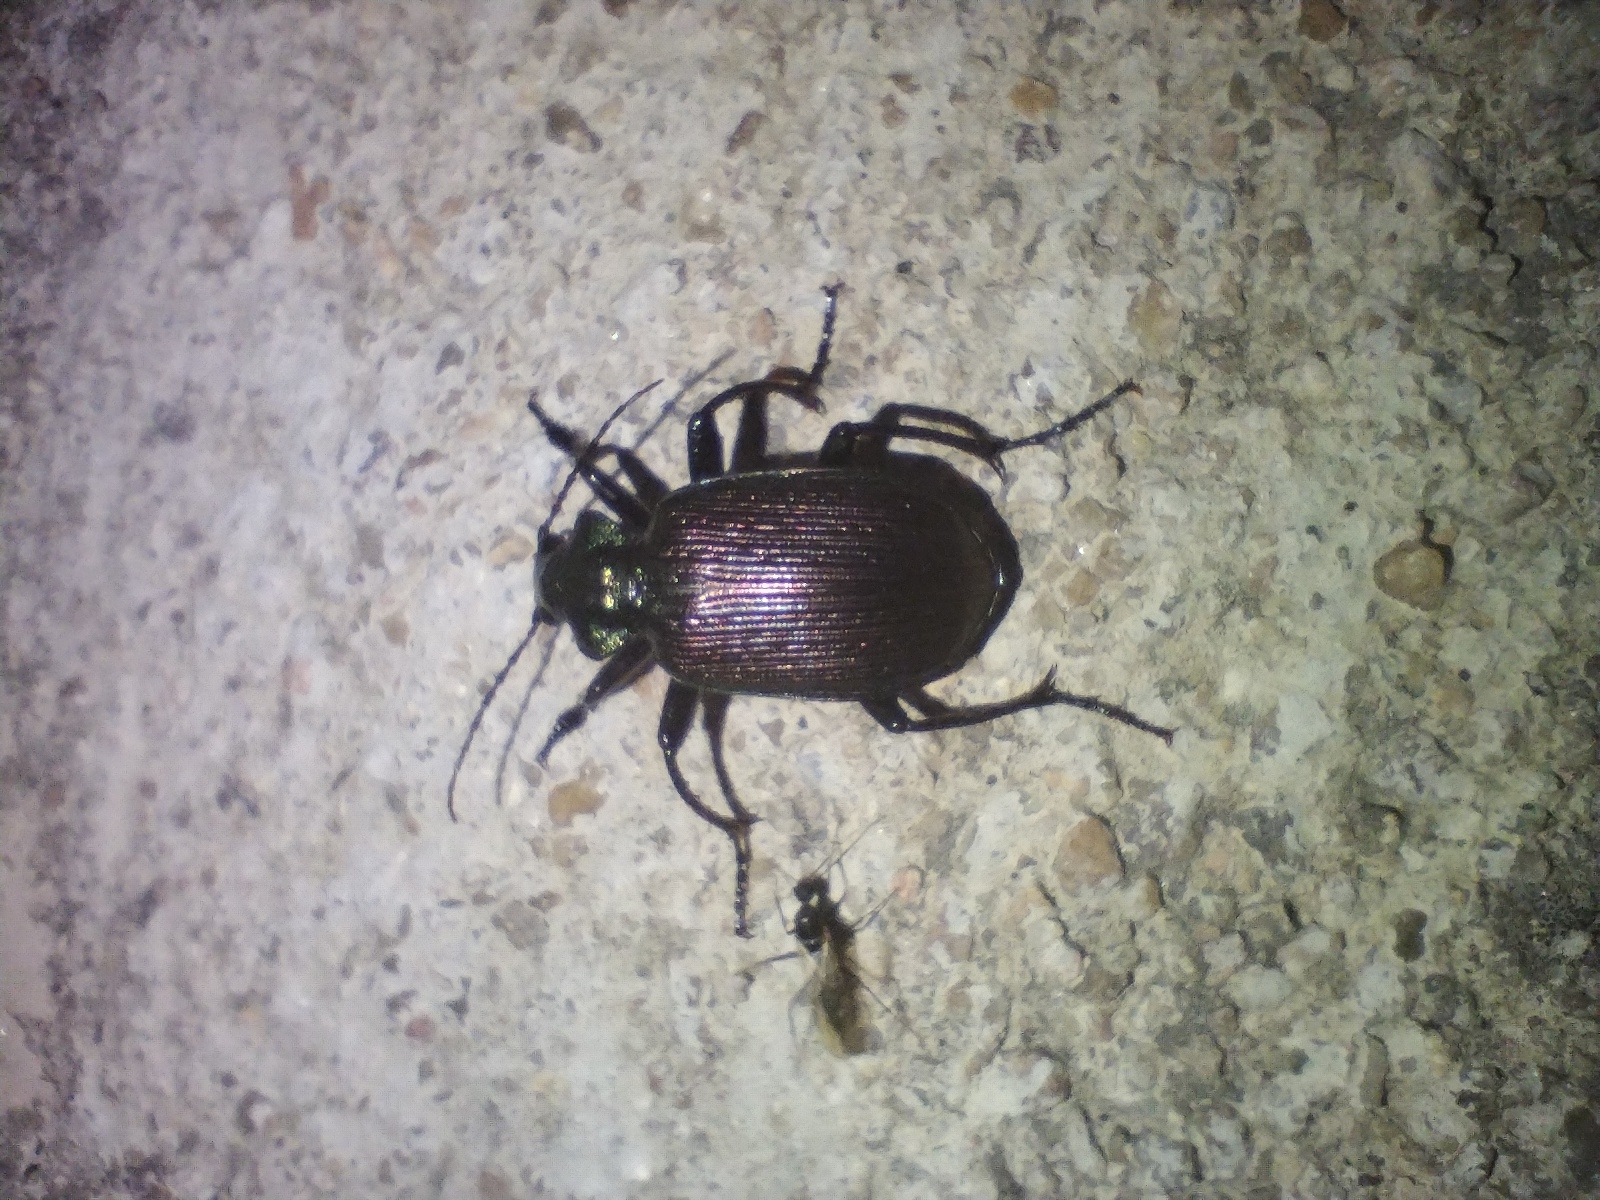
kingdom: Animalia
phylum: Arthropoda
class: Insecta
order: Coleoptera
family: Carabidae
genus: Calosoma
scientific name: Calosoma alternans
